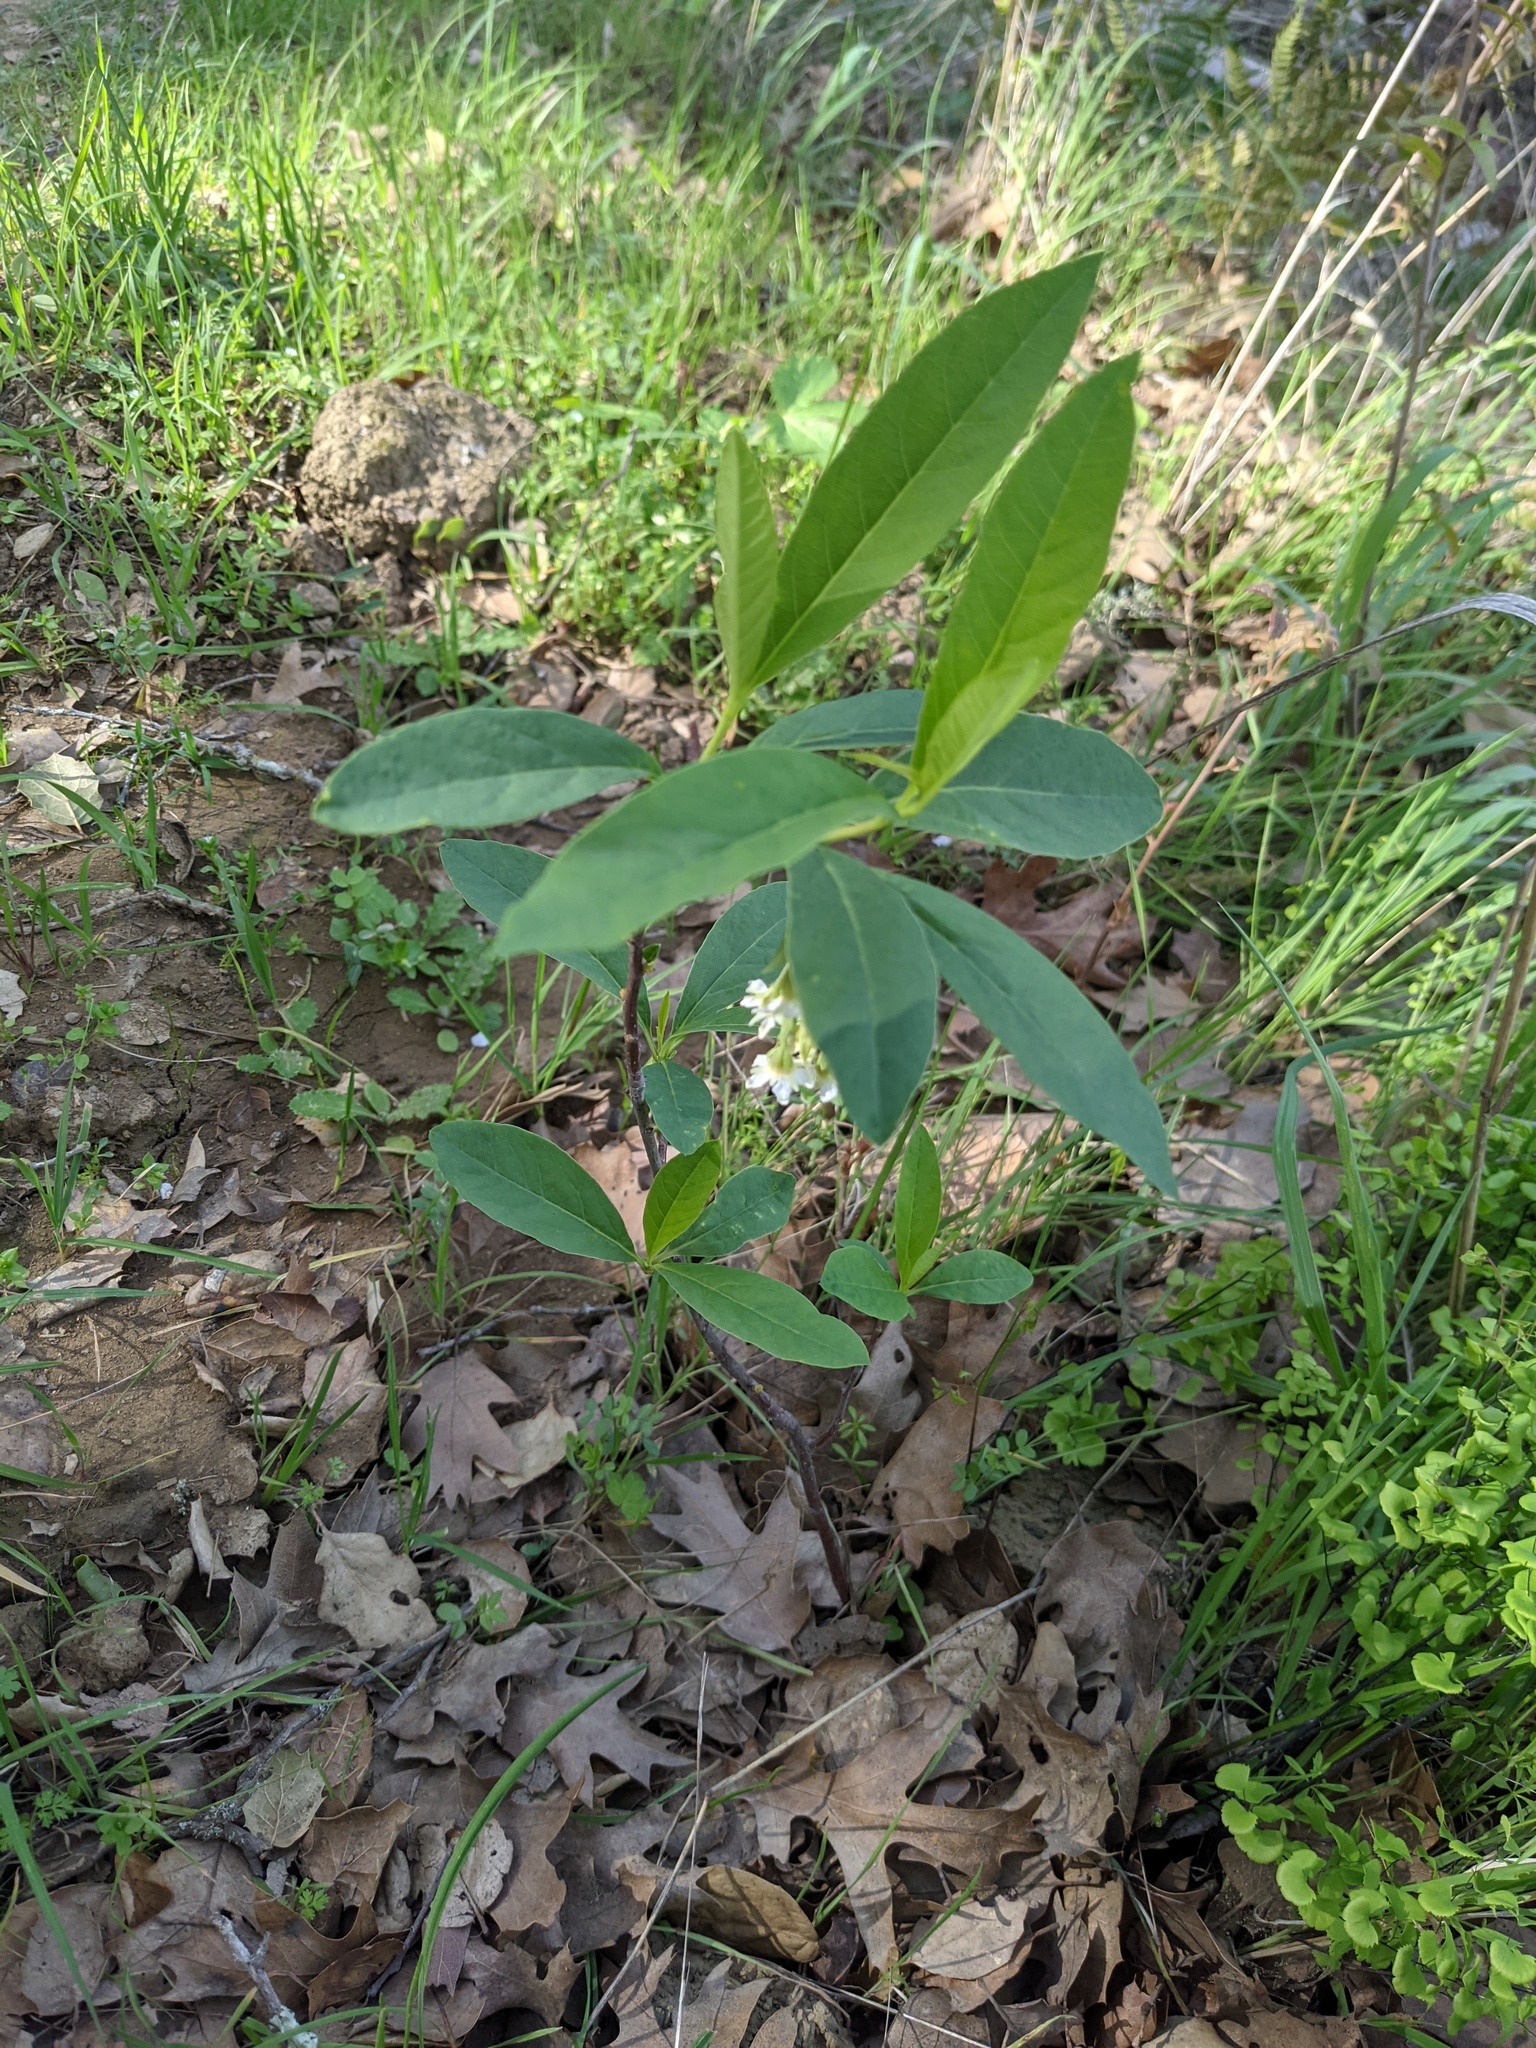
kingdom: Plantae
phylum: Tracheophyta
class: Magnoliopsida
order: Rosales
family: Rosaceae
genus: Oemleria
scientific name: Oemleria cerasiformis
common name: Osoberry
